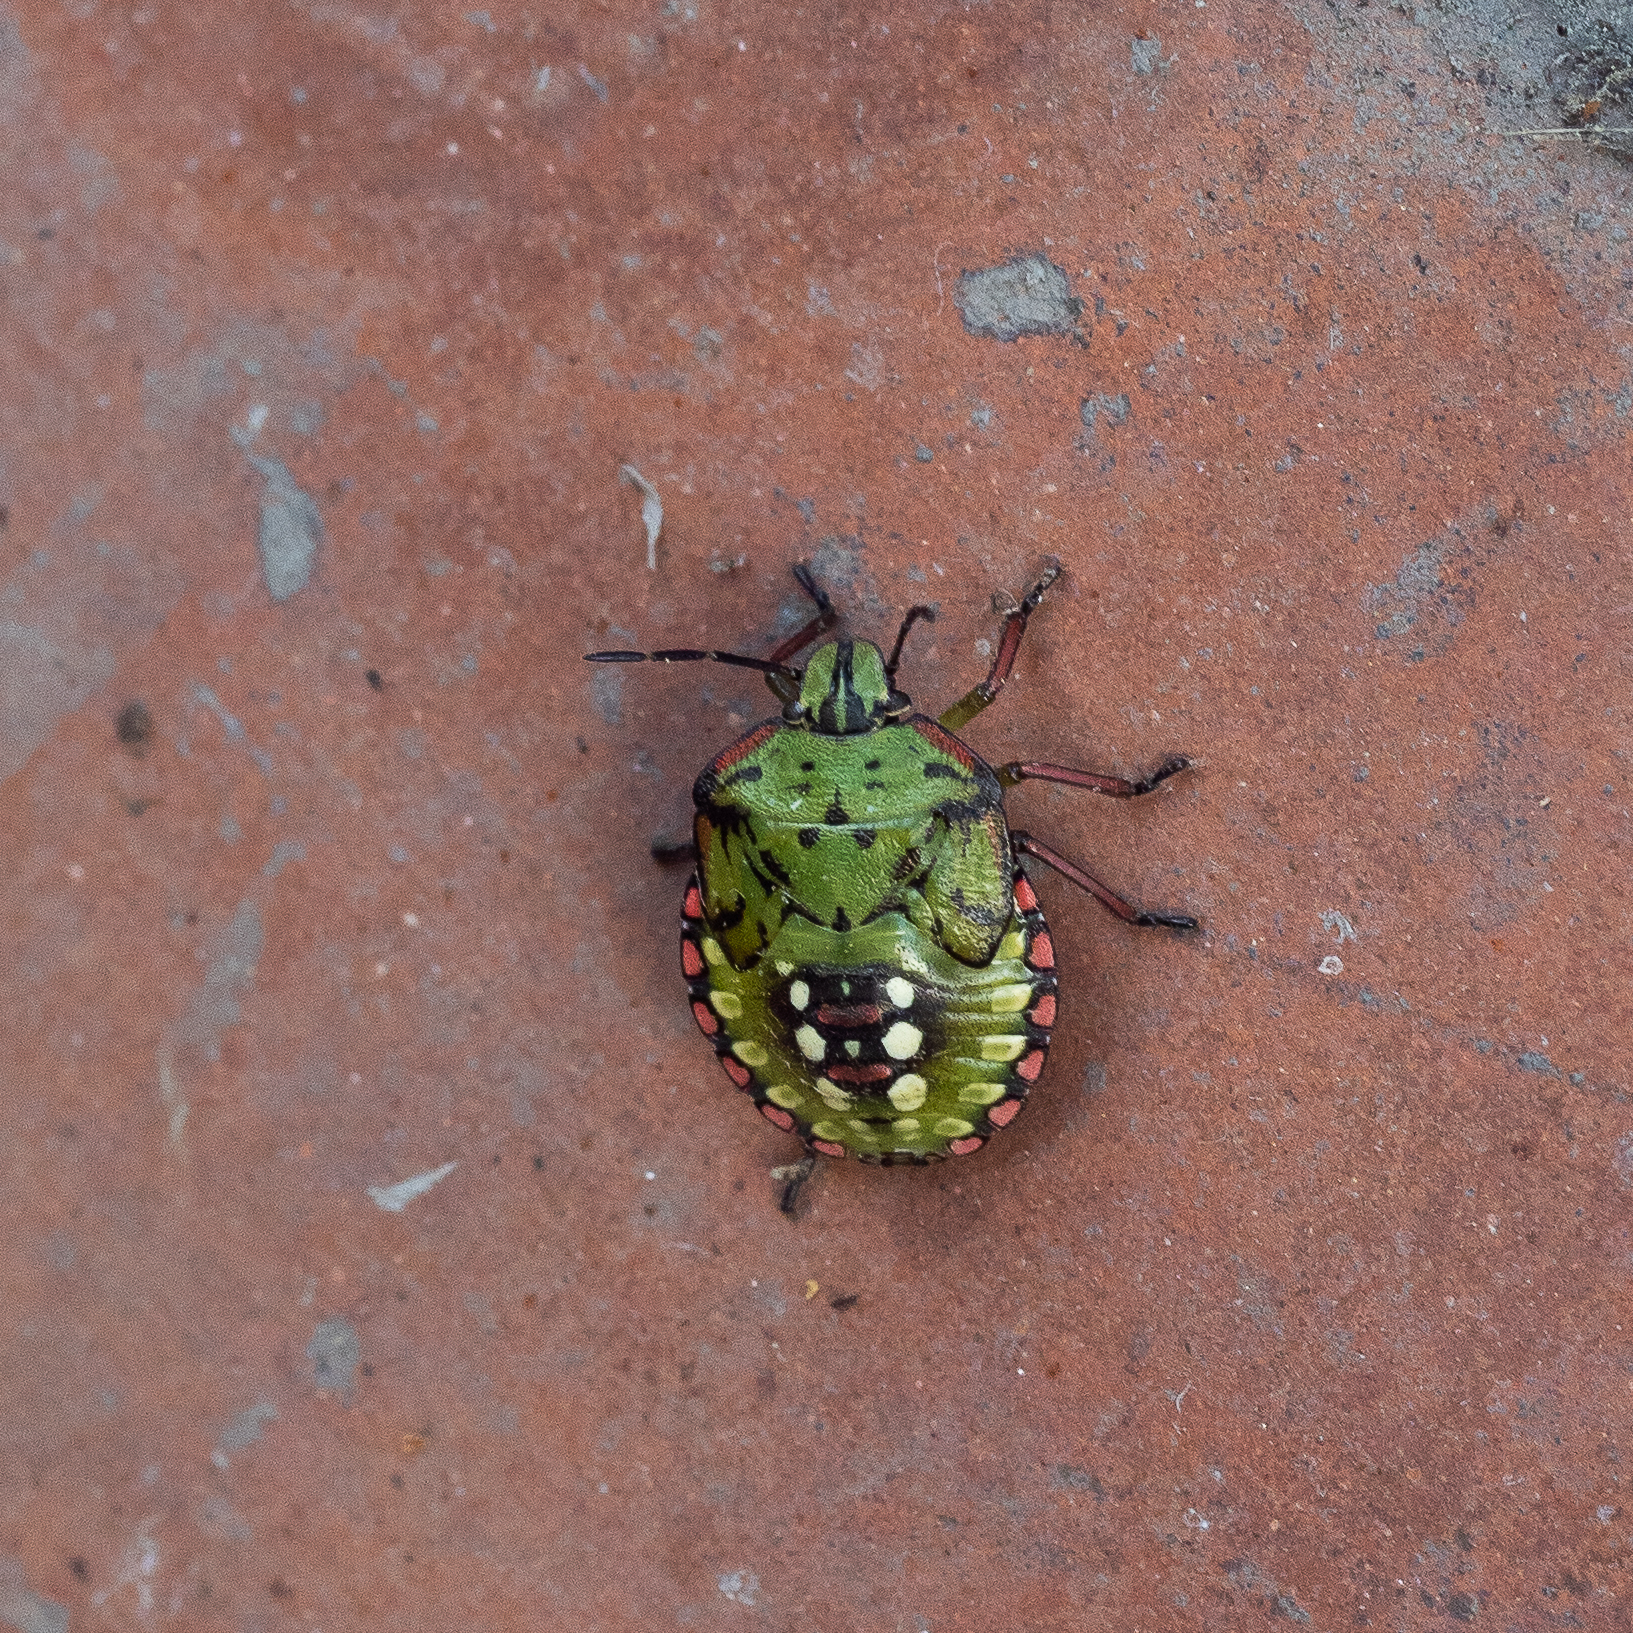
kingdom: Animalia
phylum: Arthropoda
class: Insecta
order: Hemiptera
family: Pentatomidae
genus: Nezara
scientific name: Nezara viridula
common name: Southern green stink bug
